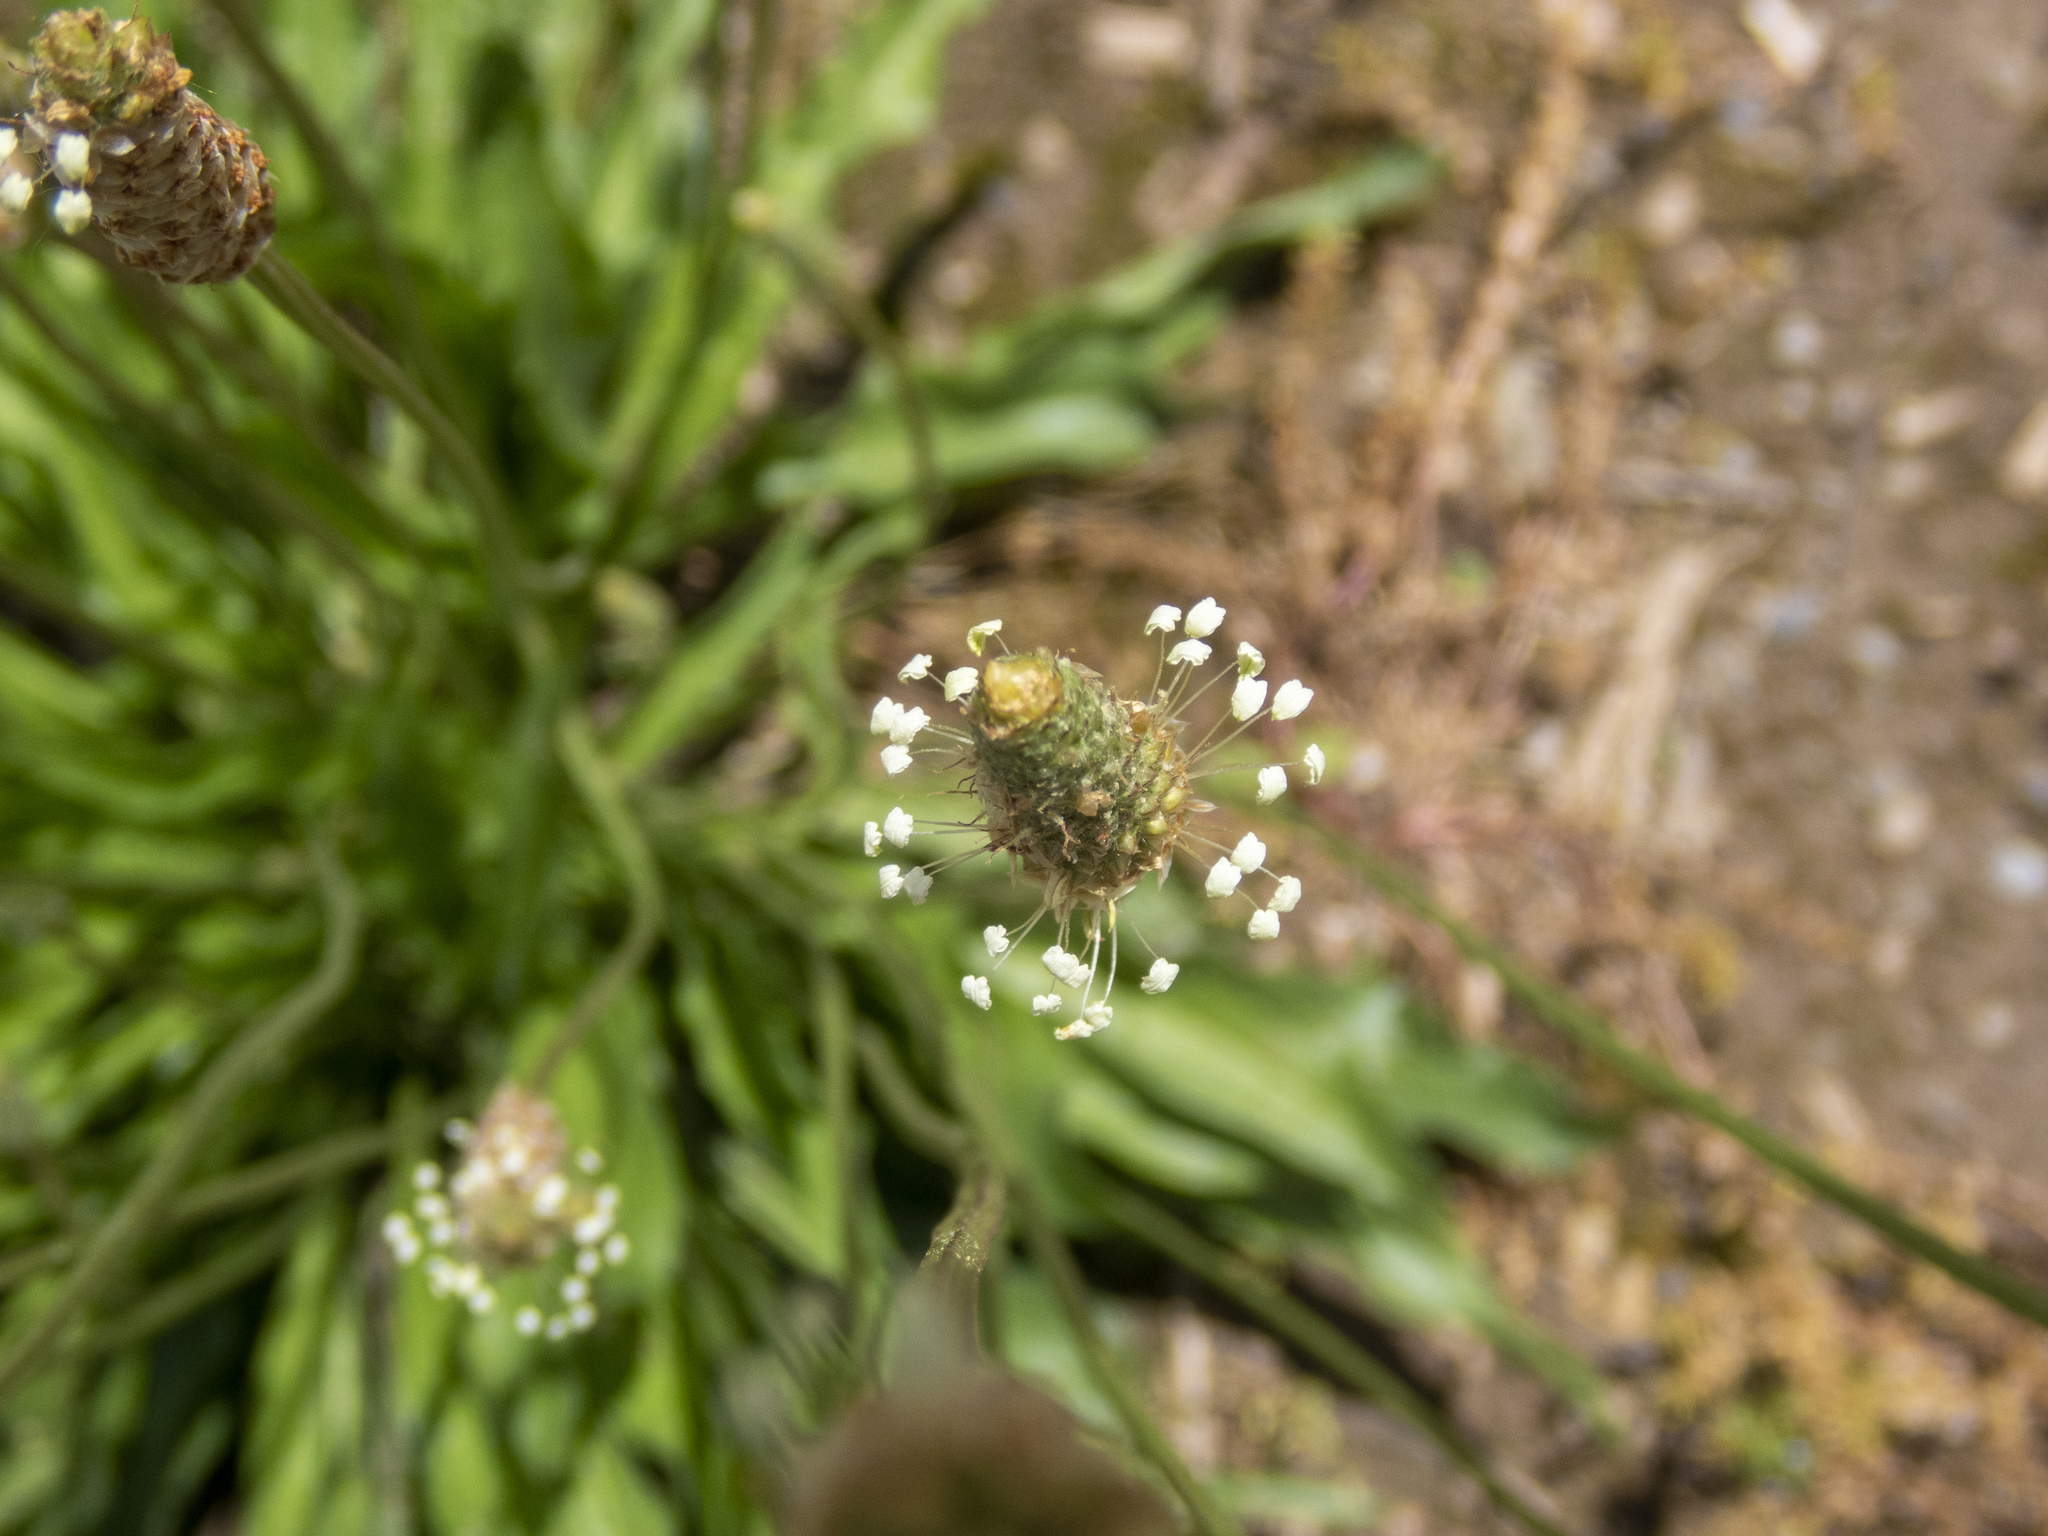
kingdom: Plantae
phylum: Tracheophyta
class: Magnoliopsida
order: Lamiales
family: Plantaginaceae
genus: Plantago
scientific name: Plantago lanceolata
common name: Ribwort plantain
